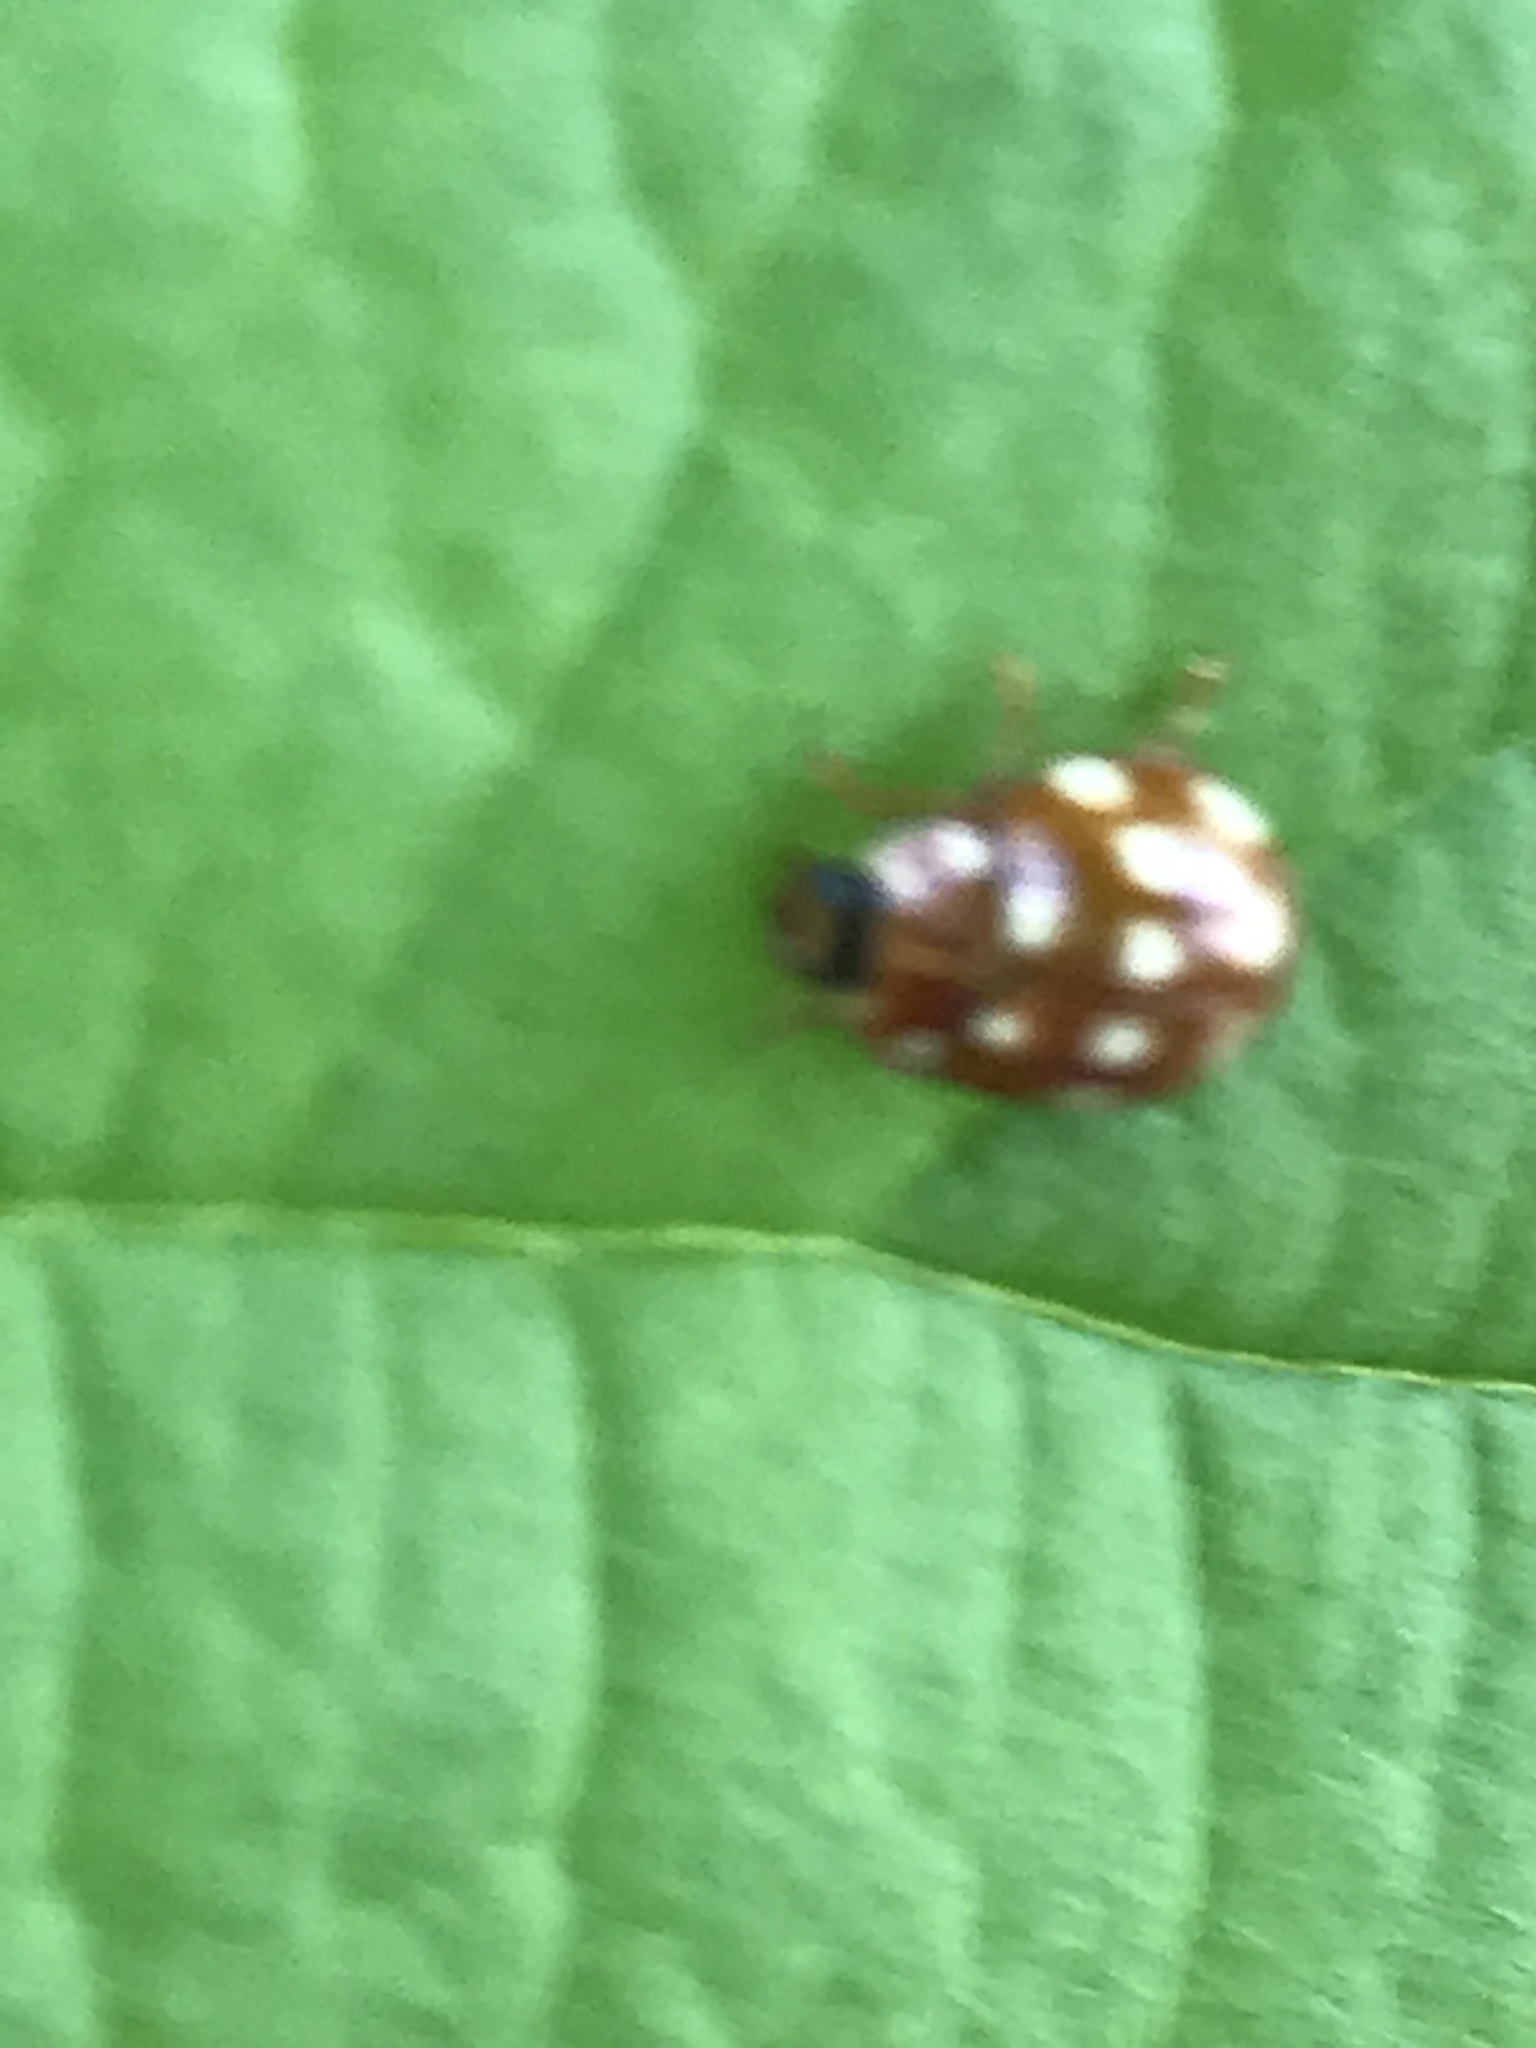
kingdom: Animalia
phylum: Arthropoda
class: Insecta
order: Coleoptera
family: Coccinellidae
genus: Calvia
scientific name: Calvia quatuordecimguttata
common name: Cream-spot ladybird
